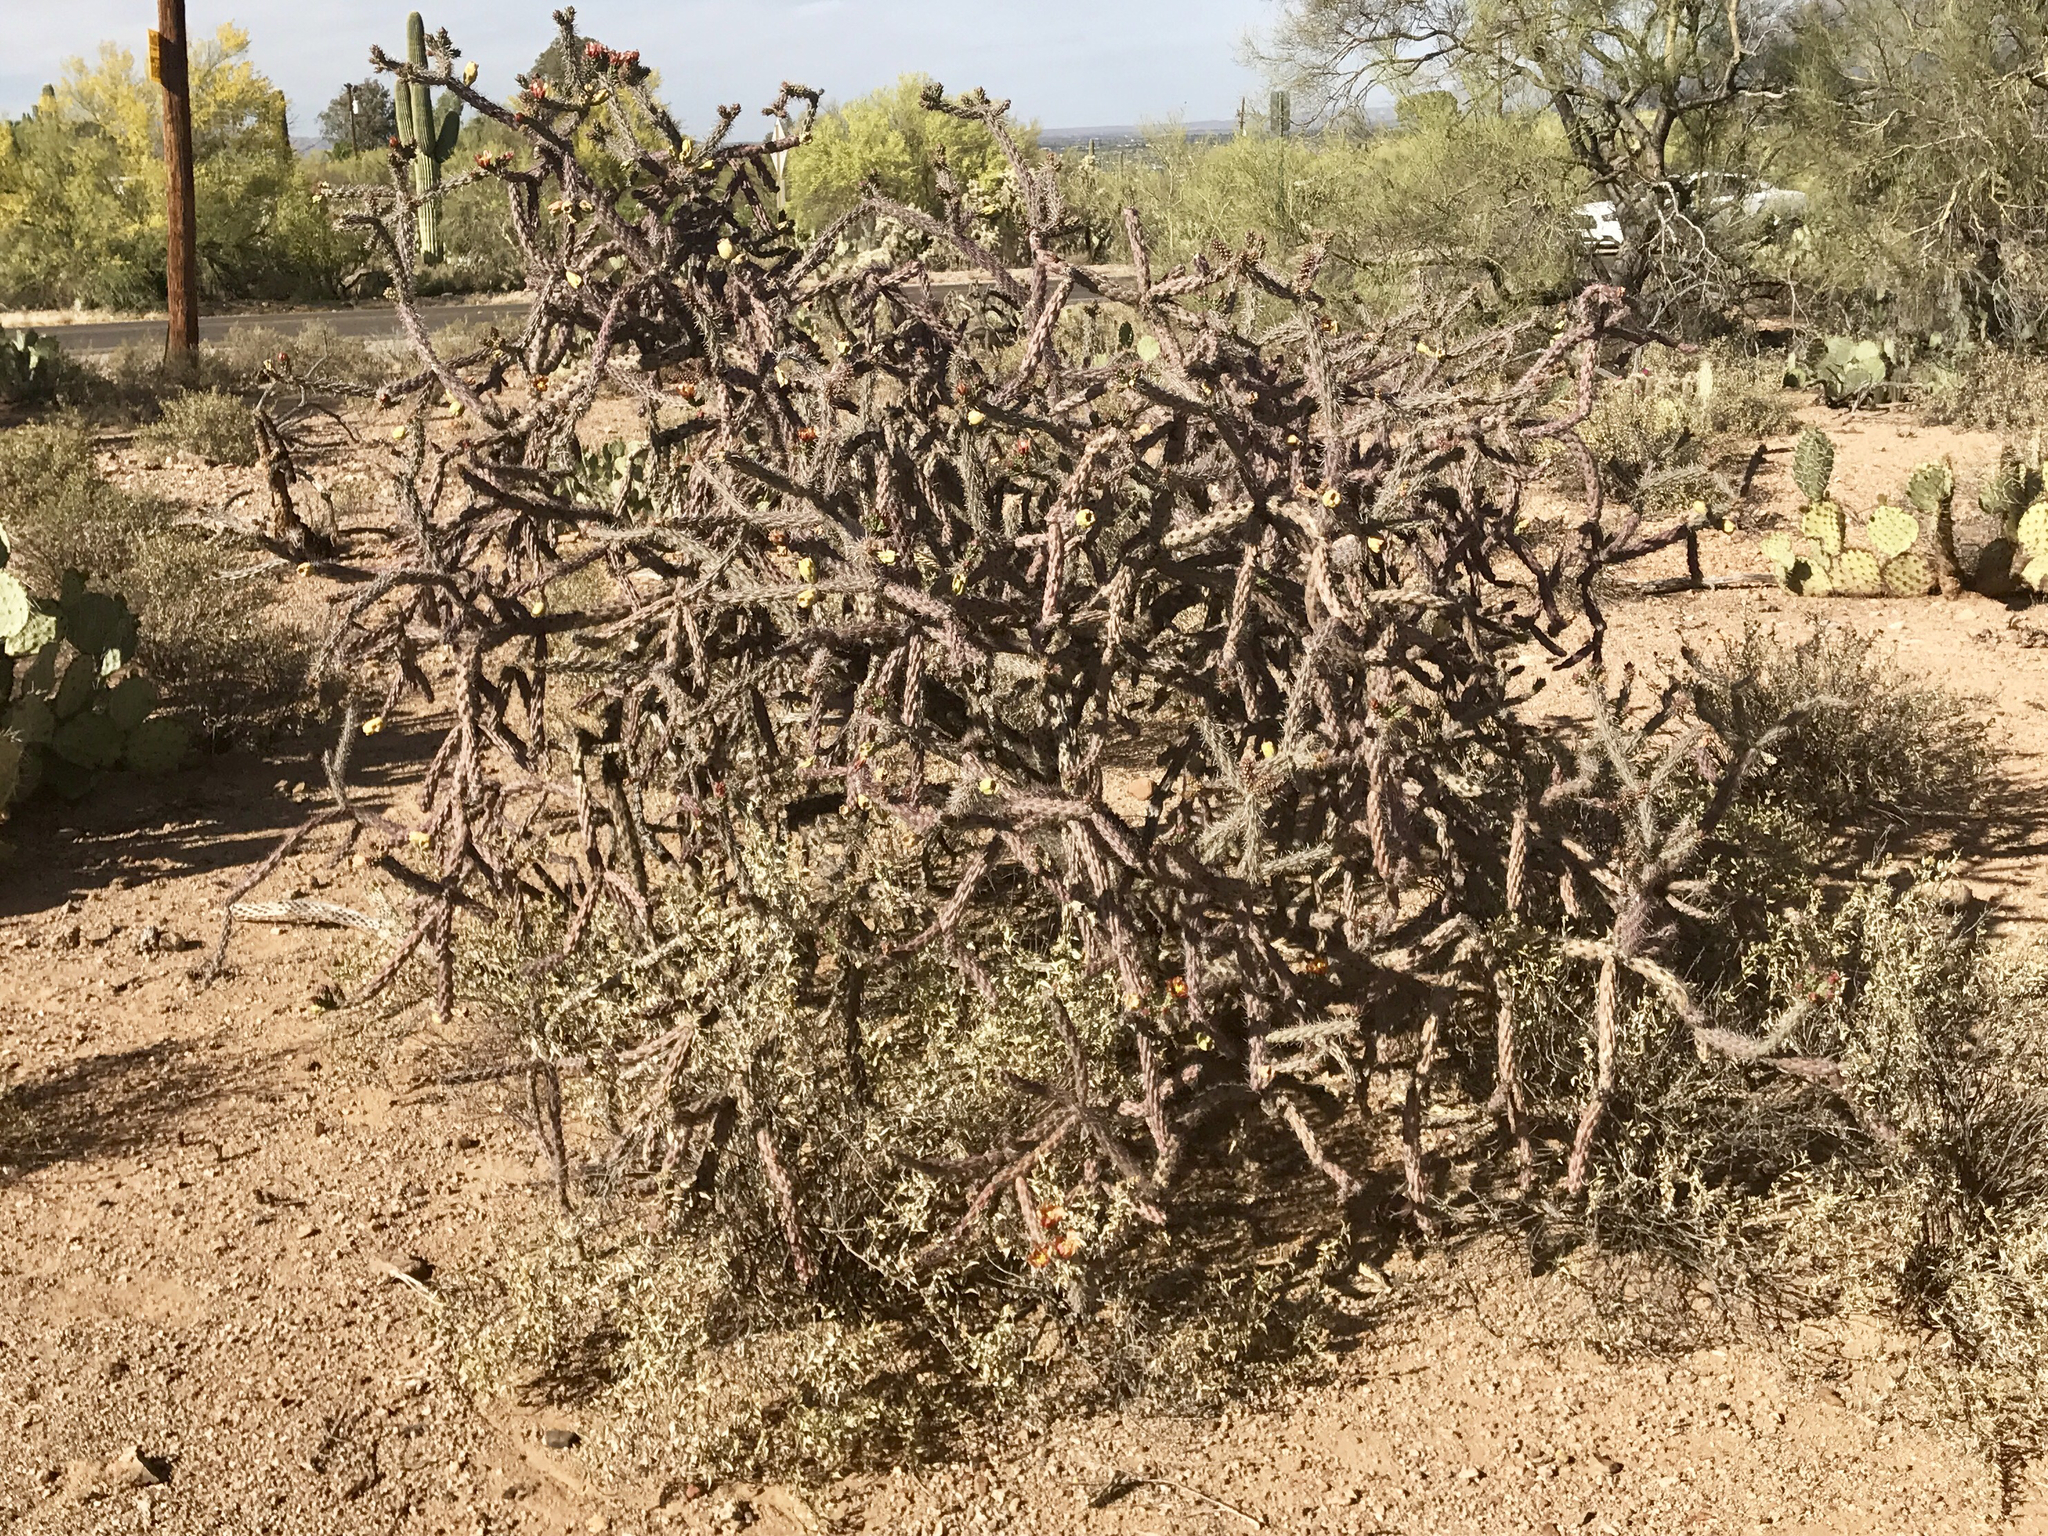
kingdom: Plantae
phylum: Tracheophyta
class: Magnoliopsida
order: Caryophyllales
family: Cactaceae
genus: Cylindropuntia
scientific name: Cylindropuntia thurberi
